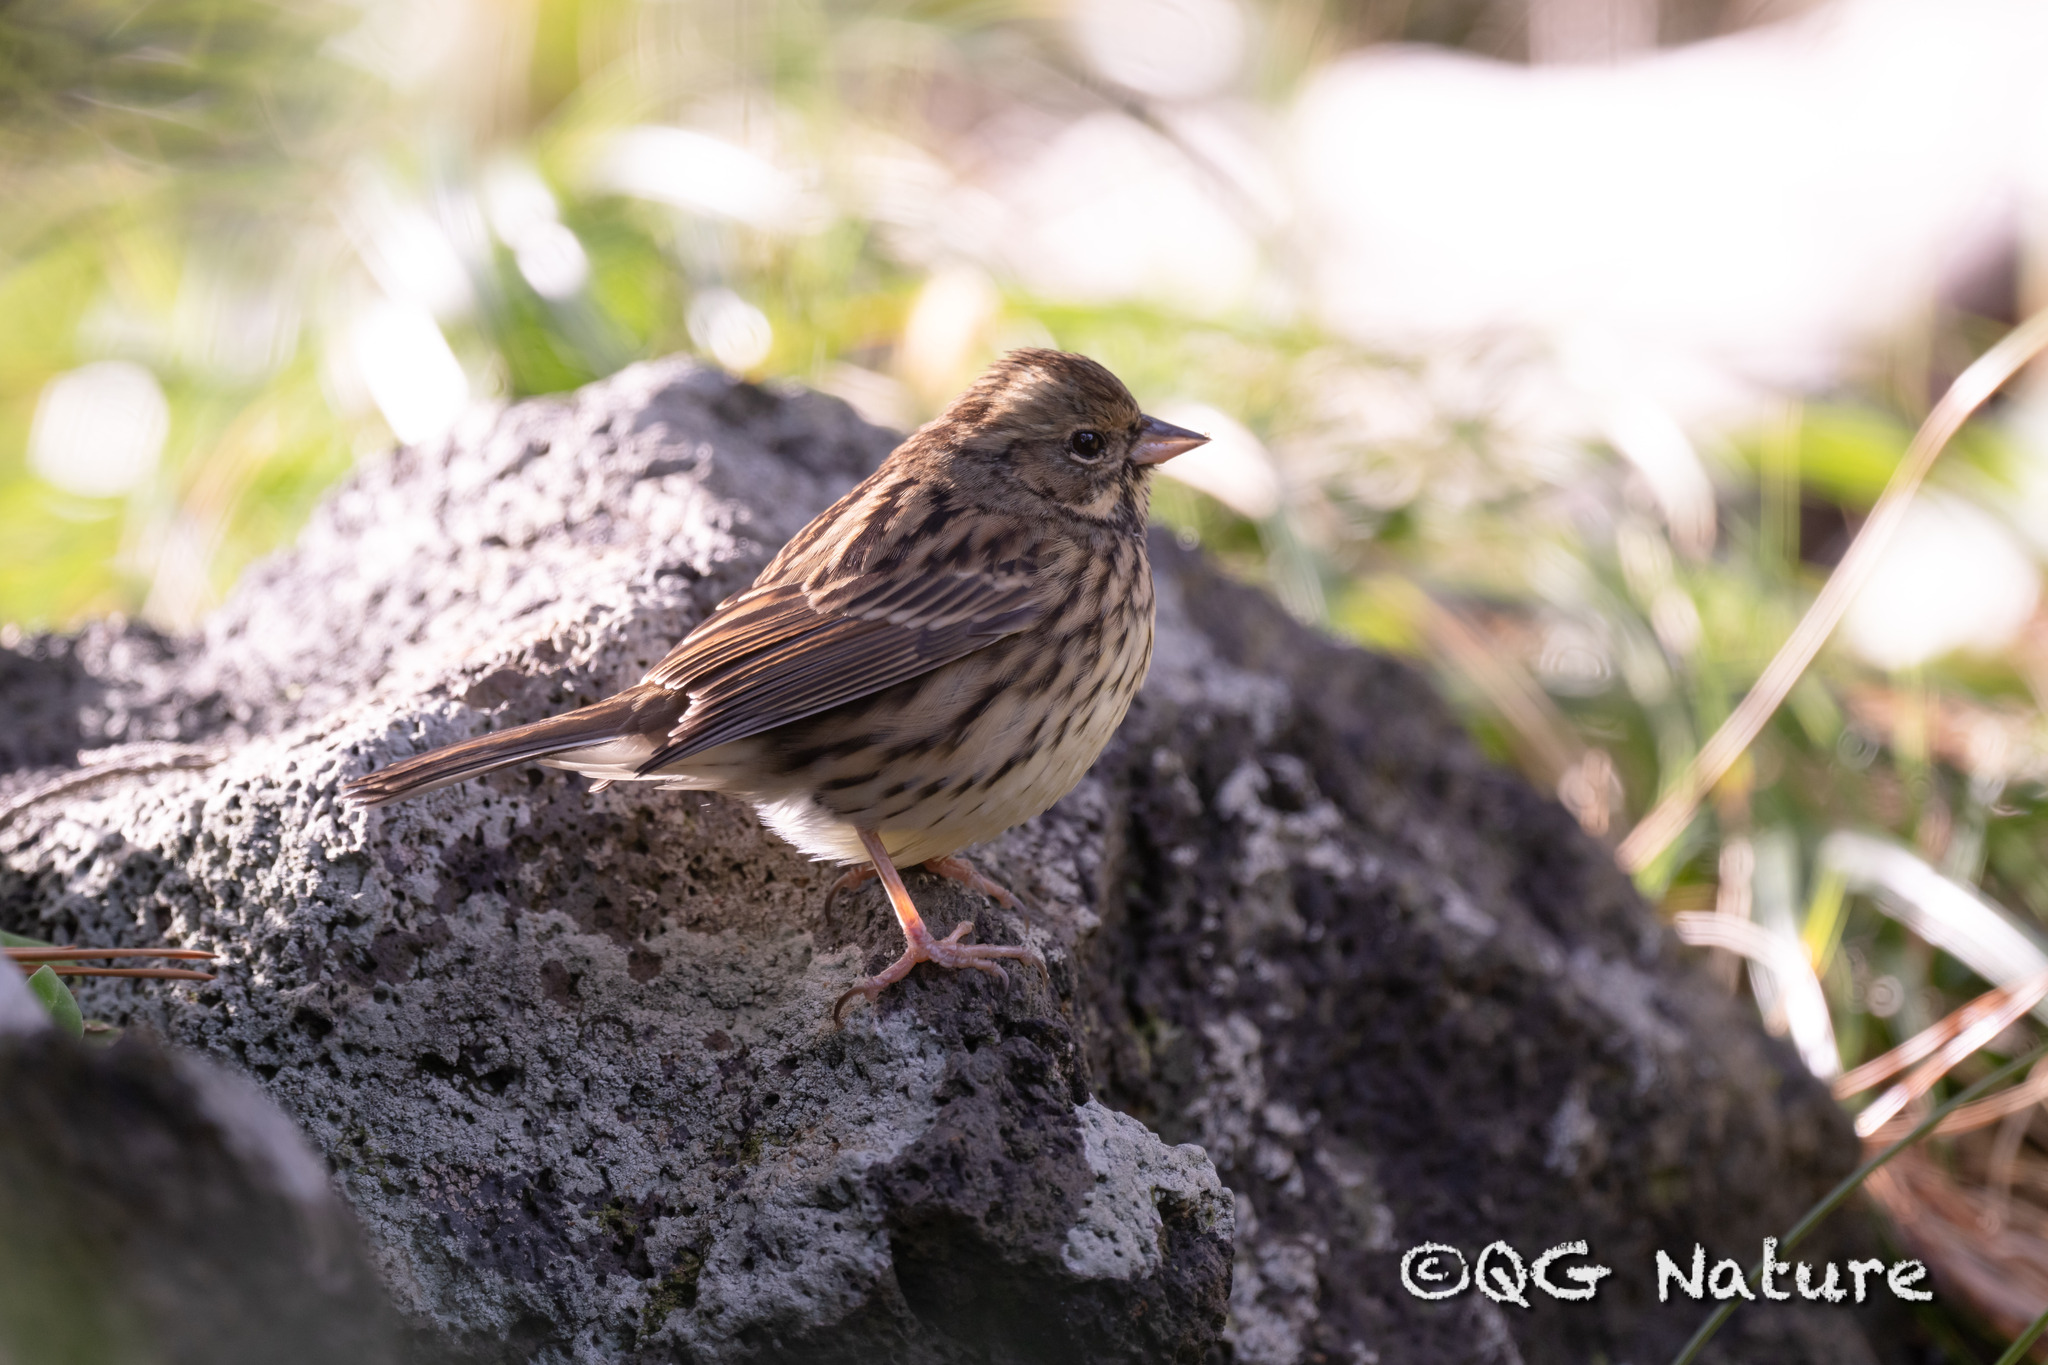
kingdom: Animalia
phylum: Chordata
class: Aves
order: Passeriformes
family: Emberizidae
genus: Emberiza
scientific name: Emberiza personata
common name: Masked bunting
